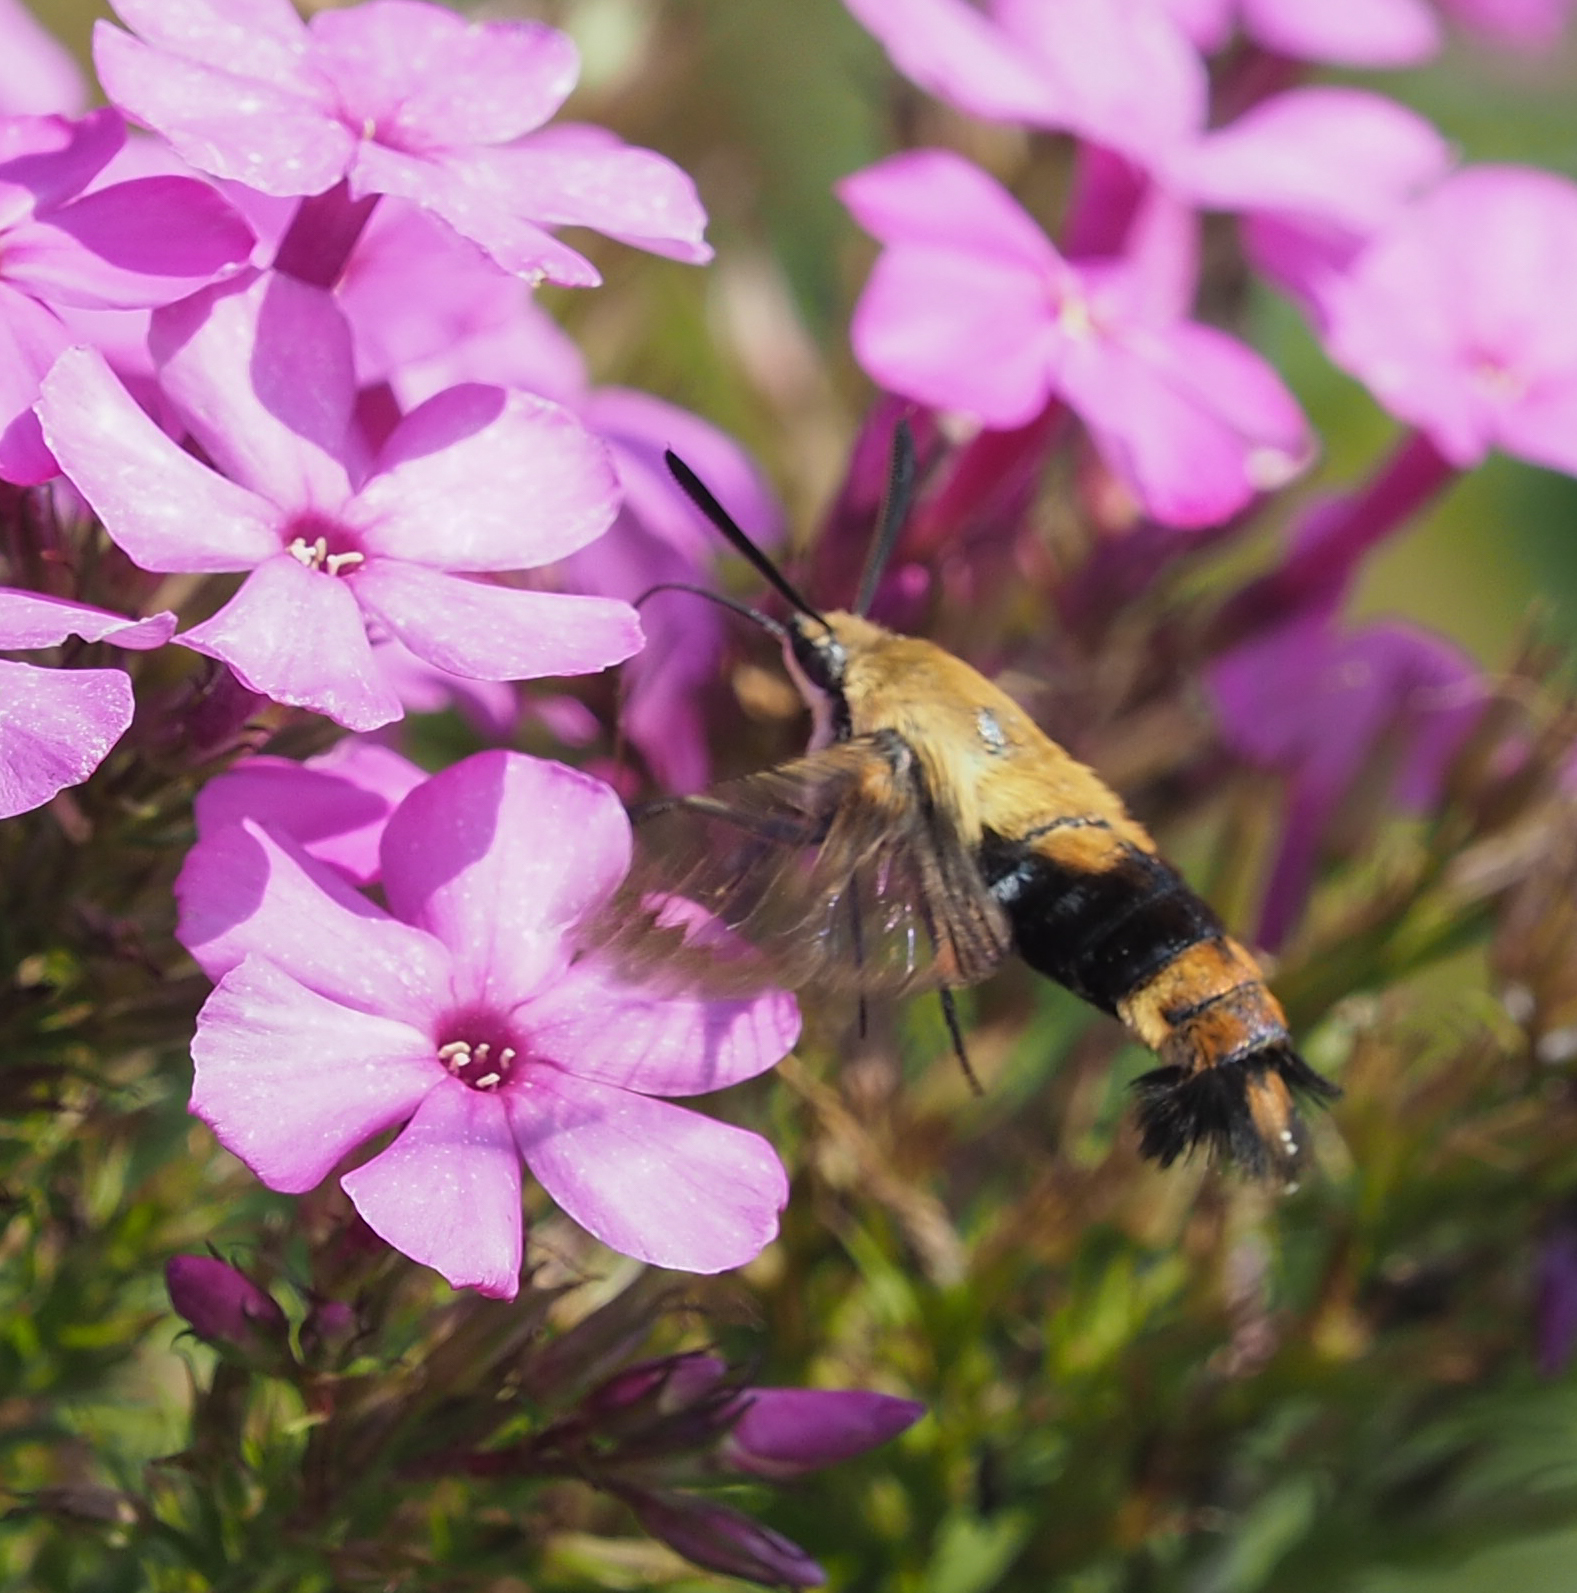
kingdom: Animalia
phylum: Arthropoda
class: Insecta
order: Lepidoptera
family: Sphingidae
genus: Hemaris
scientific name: Hemaris diffinis
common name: Bumblebee moth
